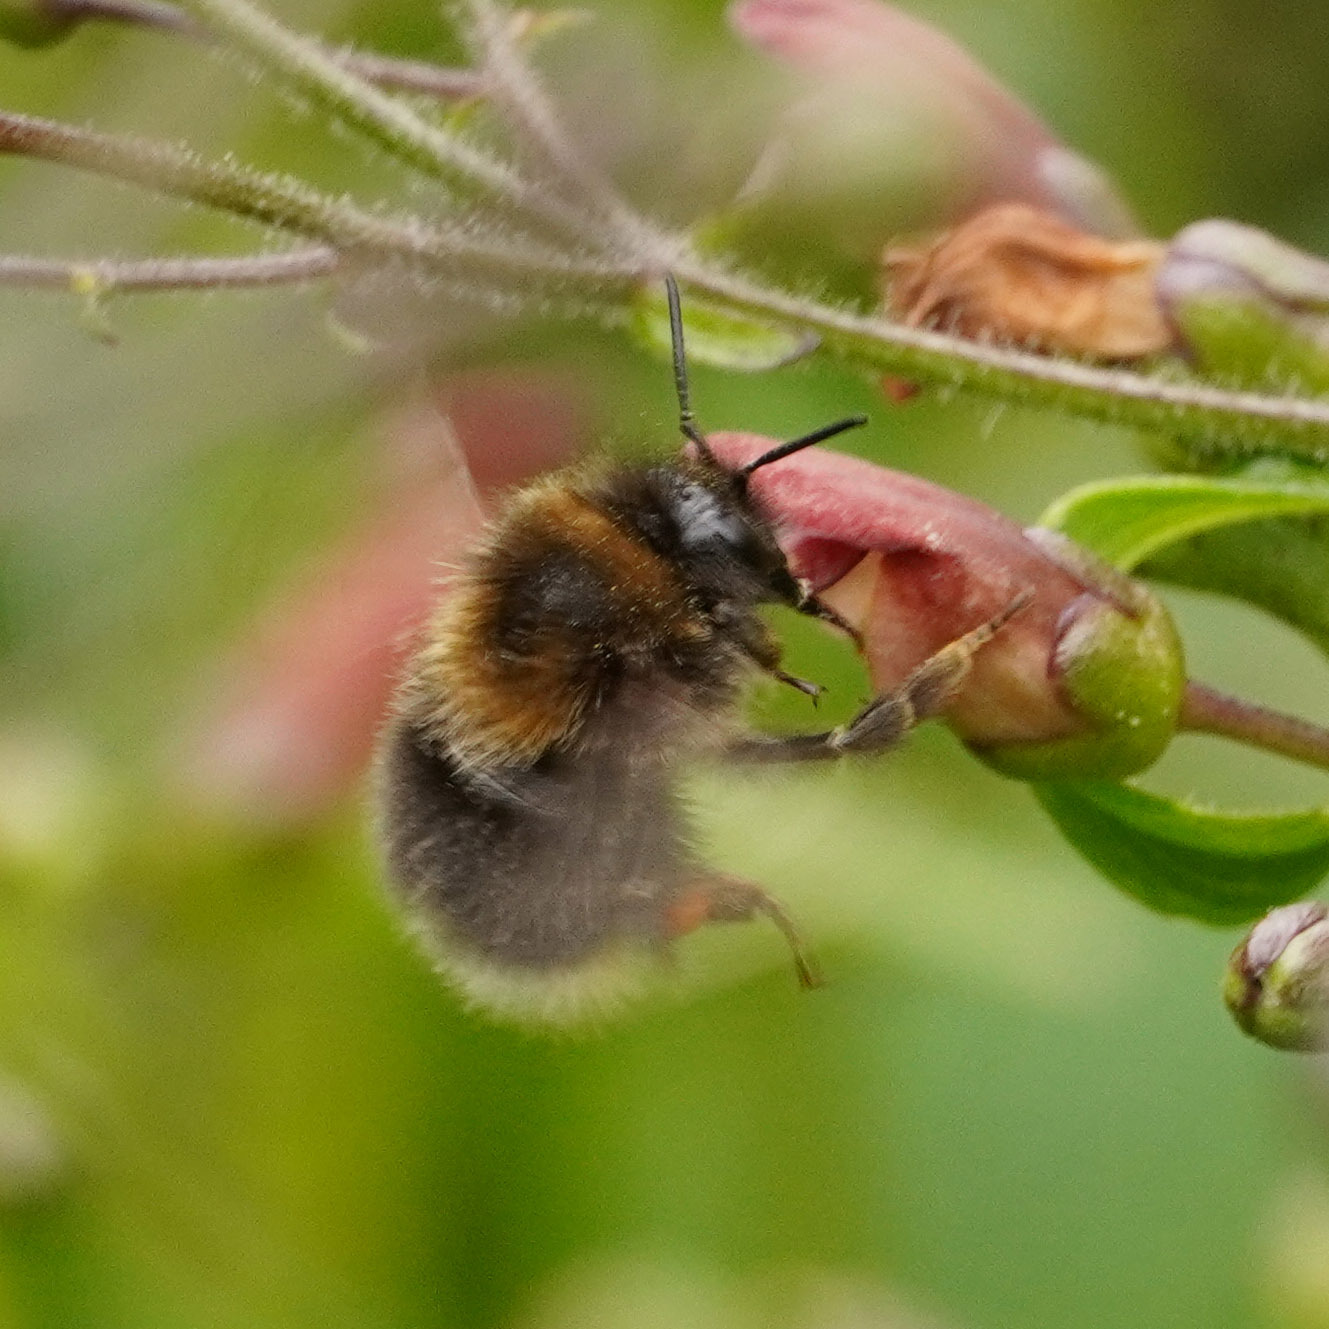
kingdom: Animalia
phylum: Arthropoda
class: Insecta
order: Hymenoptera
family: Apidae
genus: Bombus
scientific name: Bombus hypnorum
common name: New garden bumblebee
